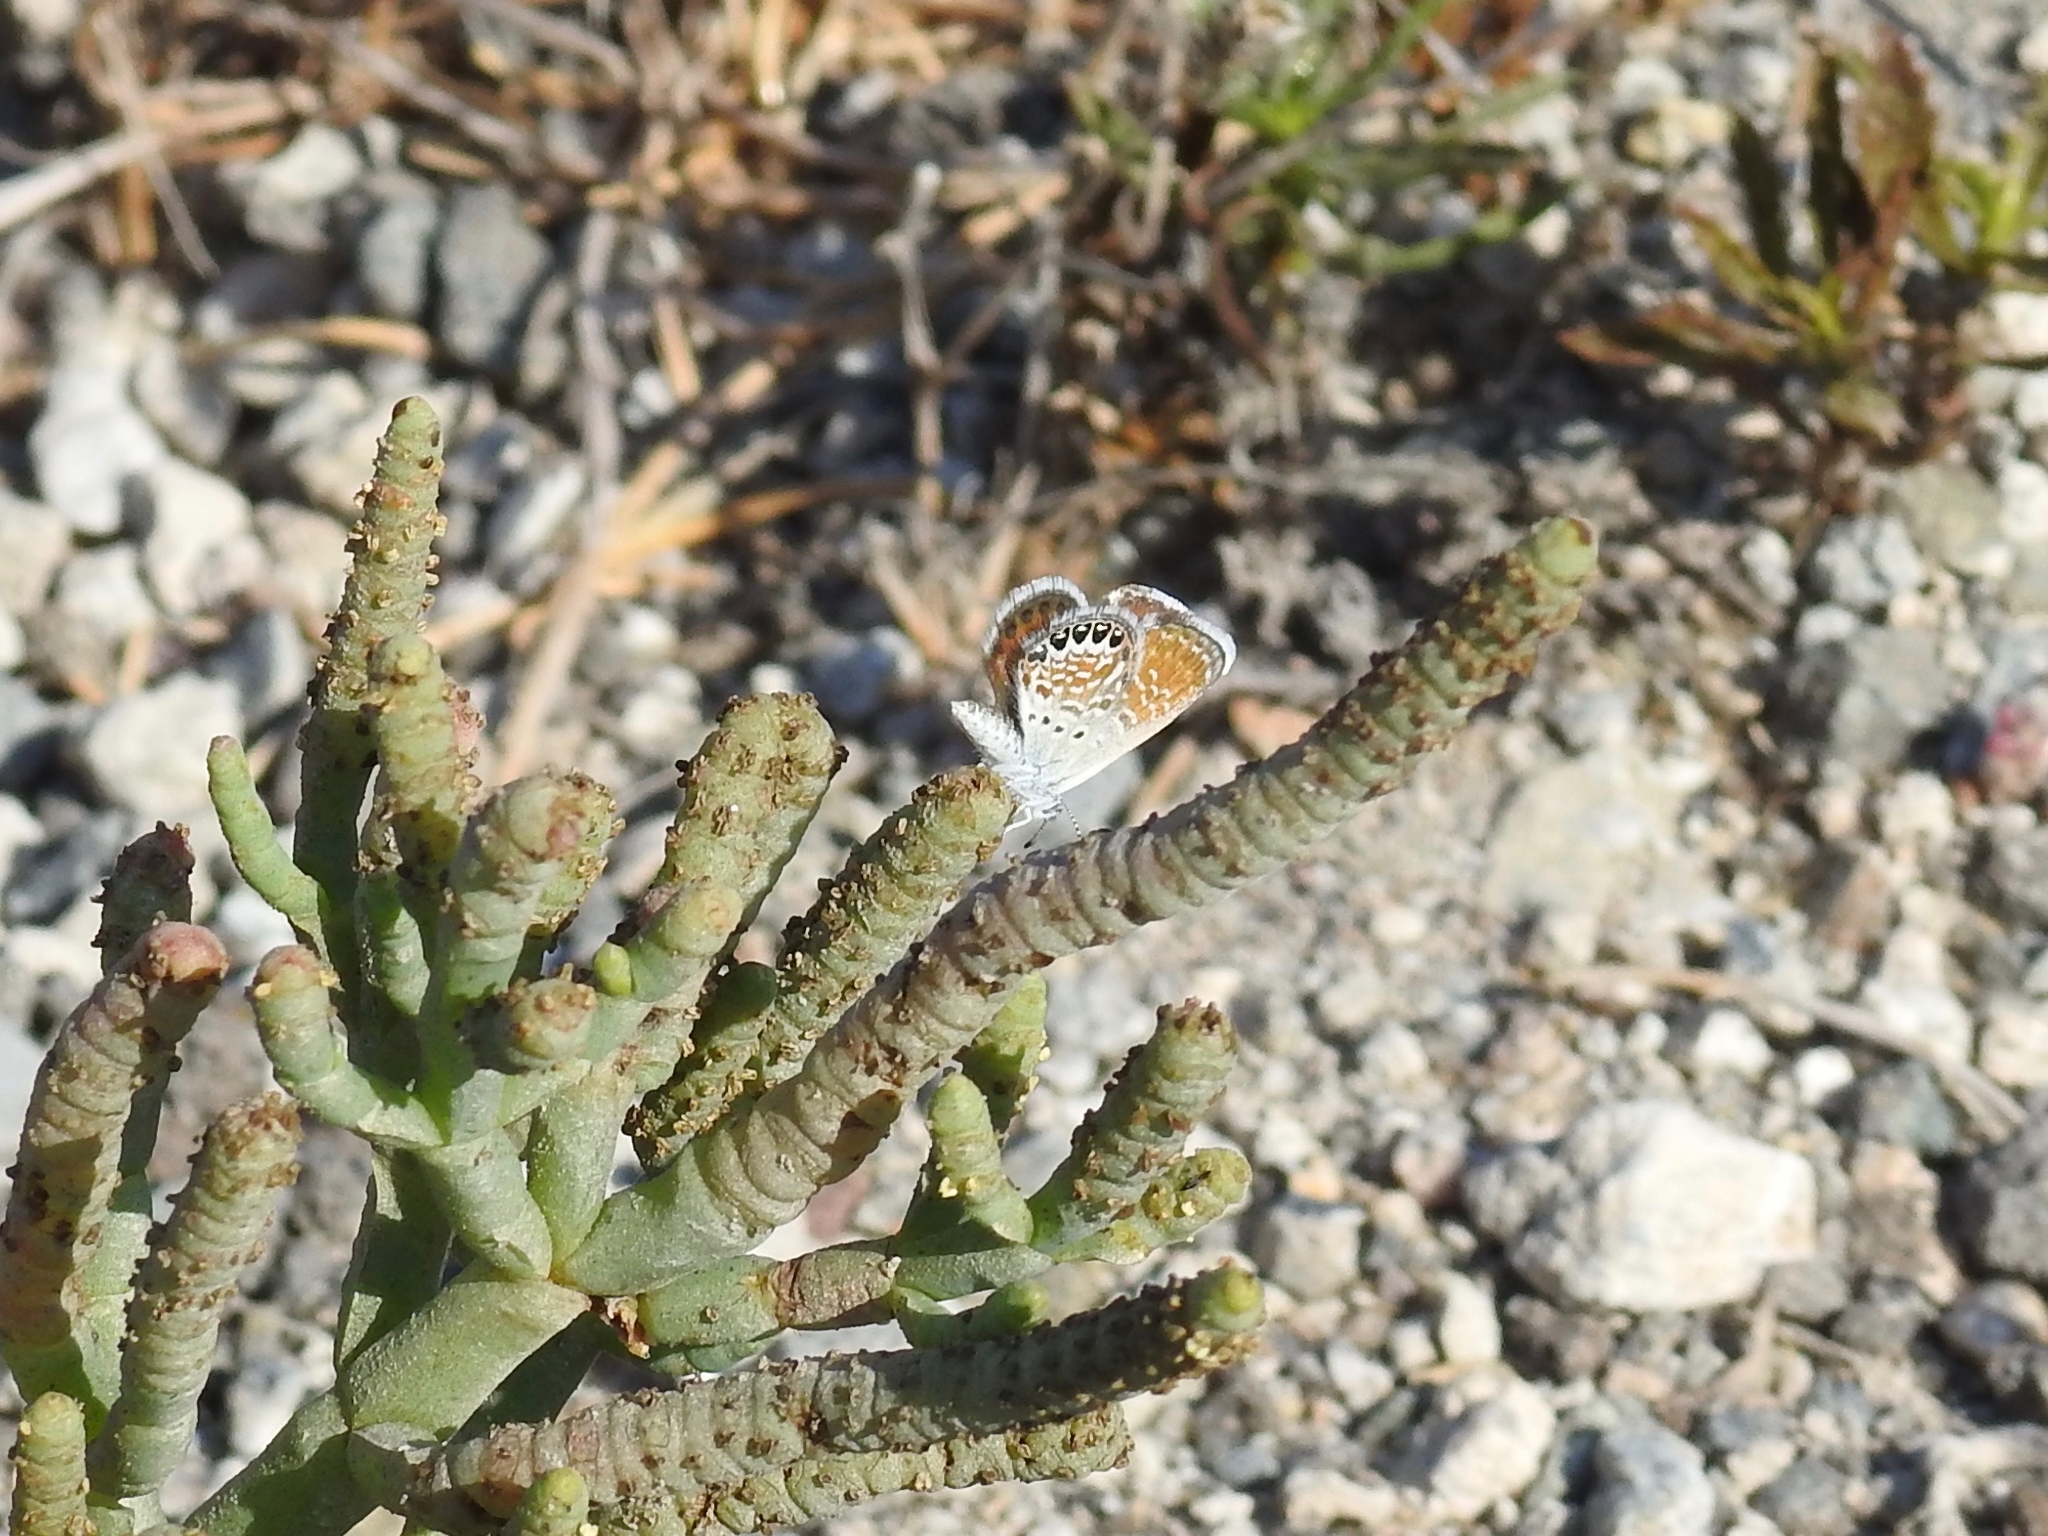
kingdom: Animalia
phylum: Arthropoda
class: Insecta
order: Lepidoptera
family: Lycaenidae
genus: Brephidium
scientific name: Brephidium exilis
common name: Pygmy blue
